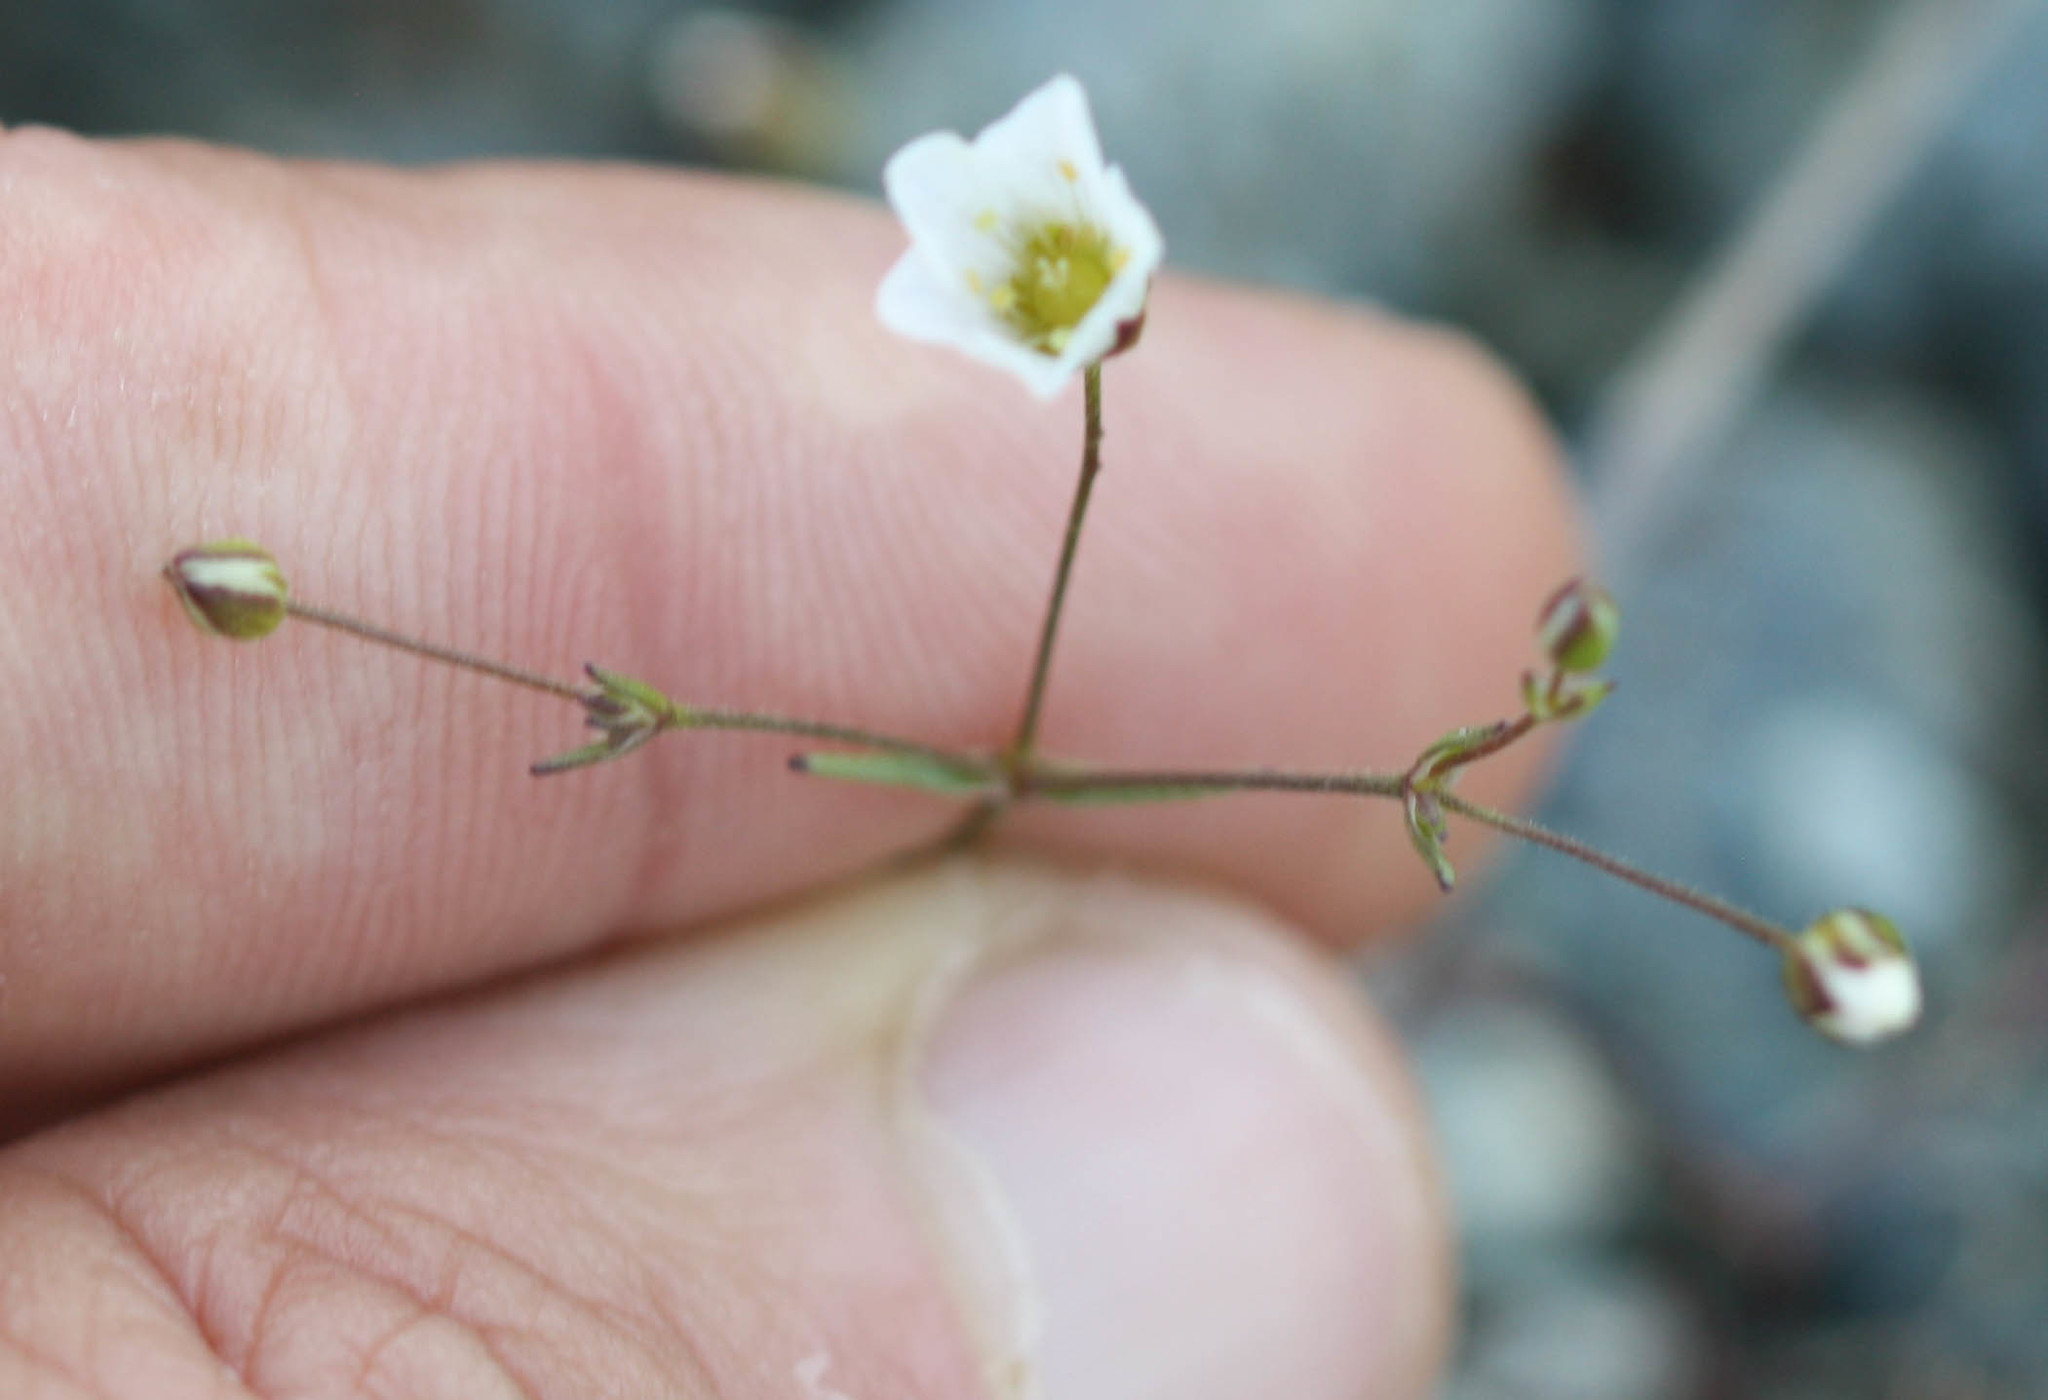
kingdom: Plantae
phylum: Tracheophyta
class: Magnoliopsida
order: Caryophyllales
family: Caryophyllaceae
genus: Sabulina
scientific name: Sabulina douglasii
